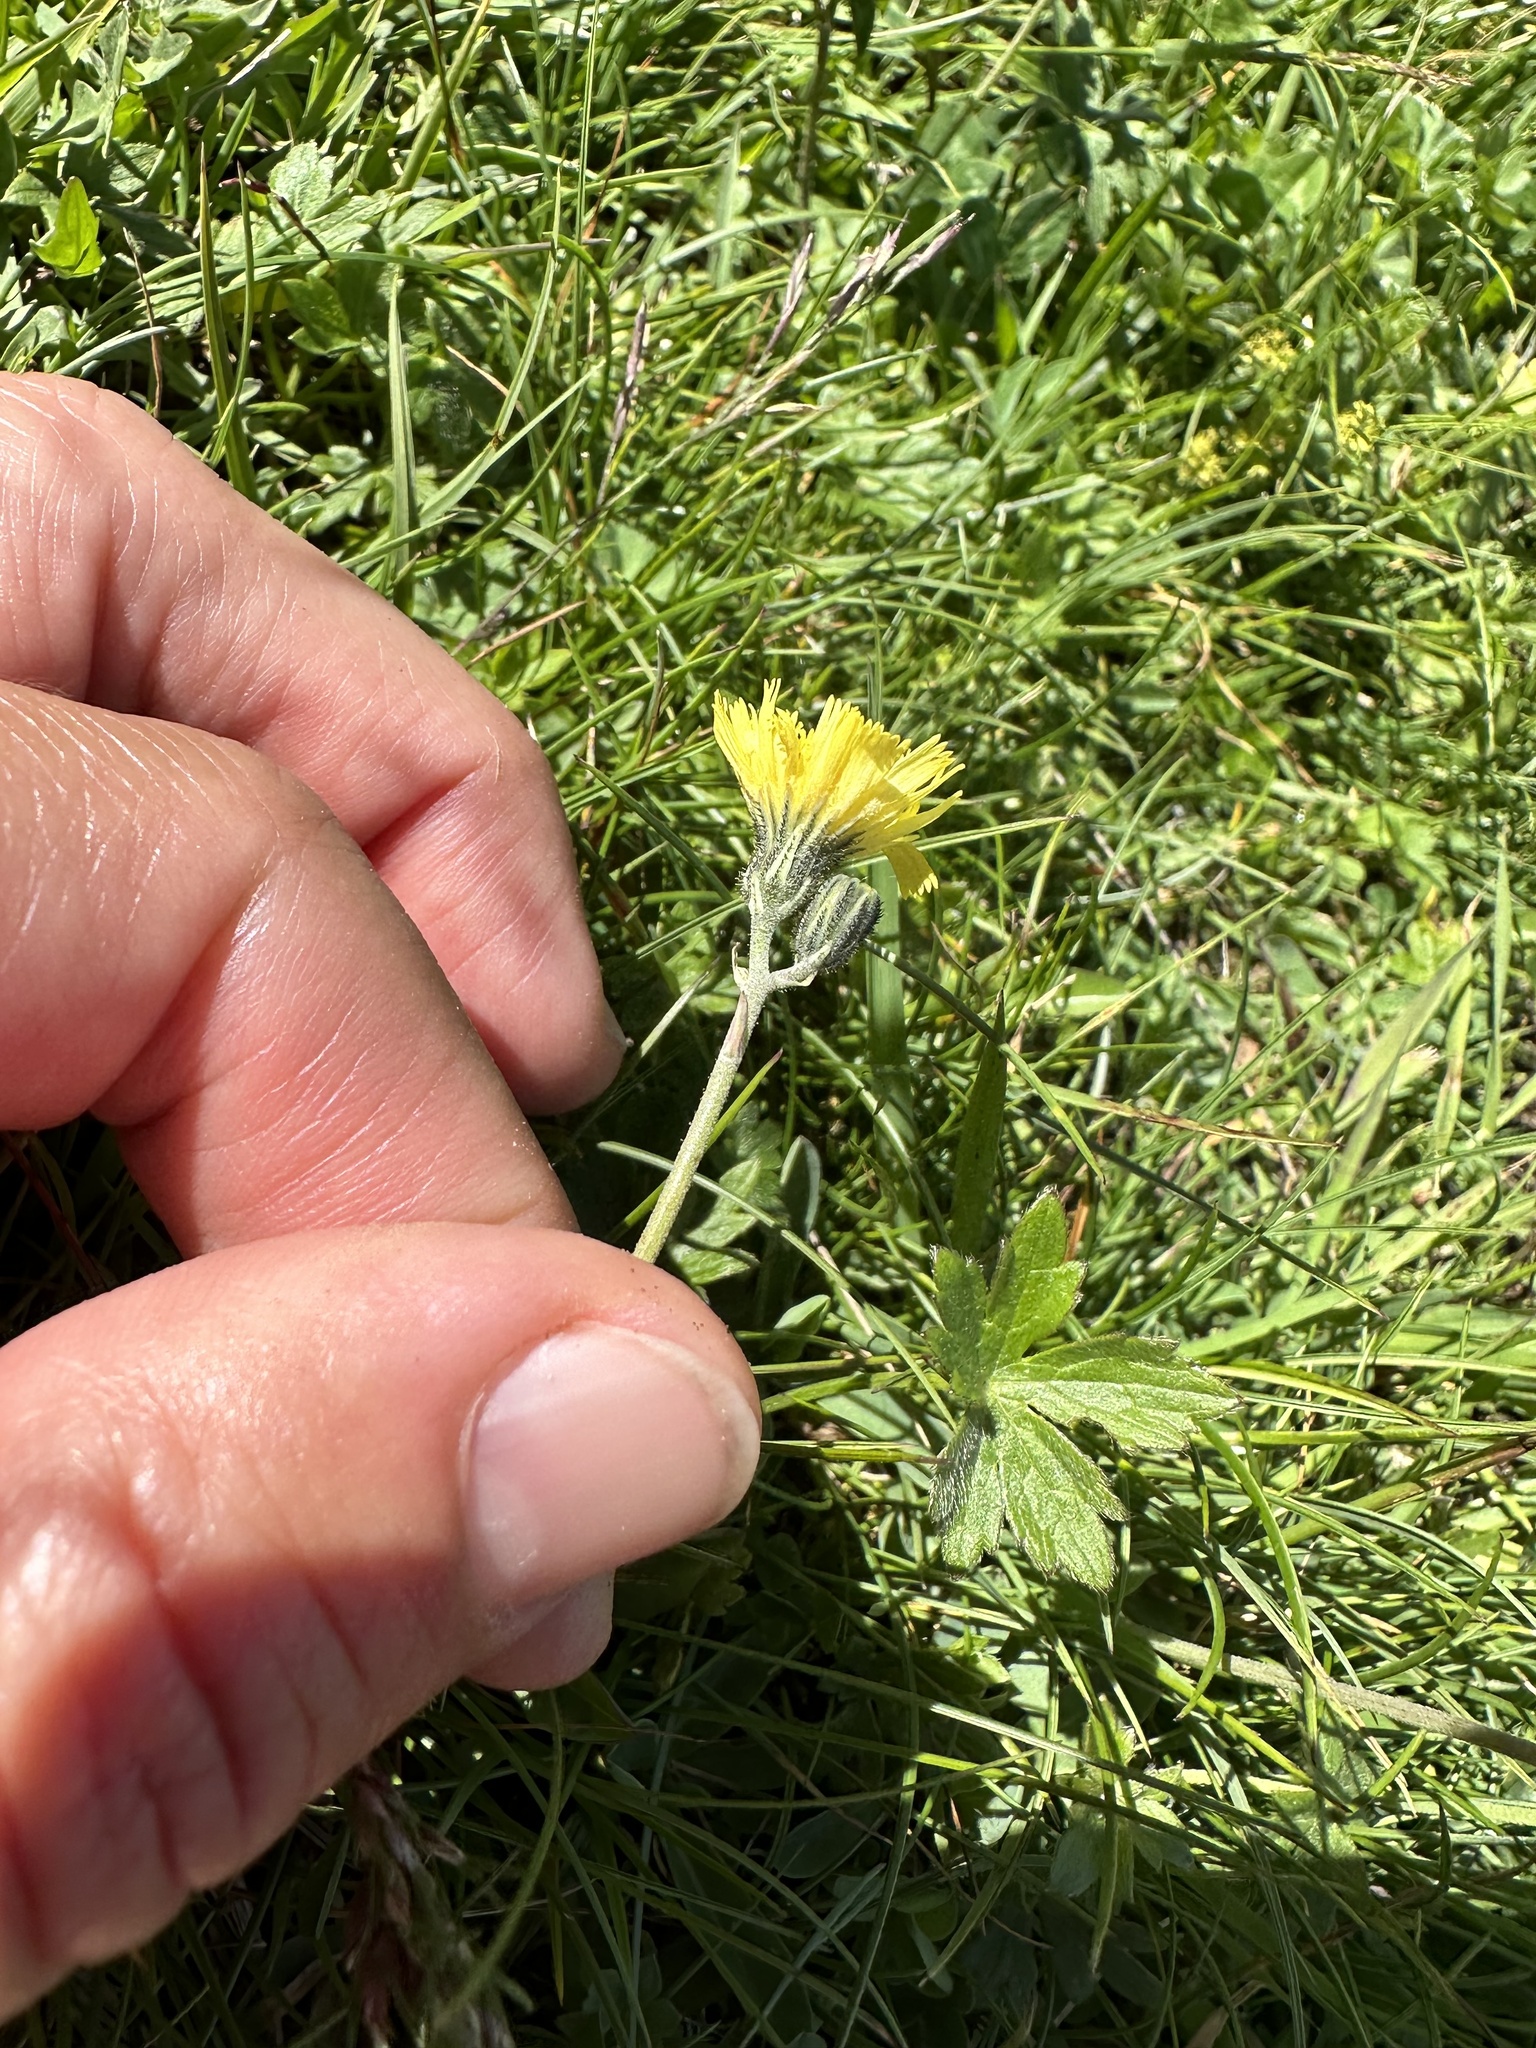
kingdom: Plantae
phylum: Tracheophyta
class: Magnoliopsida
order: Asterales
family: Asteraceae
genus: Pilosella
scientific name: Pilosella lactucella
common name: Glaucous fox-and-cubs
